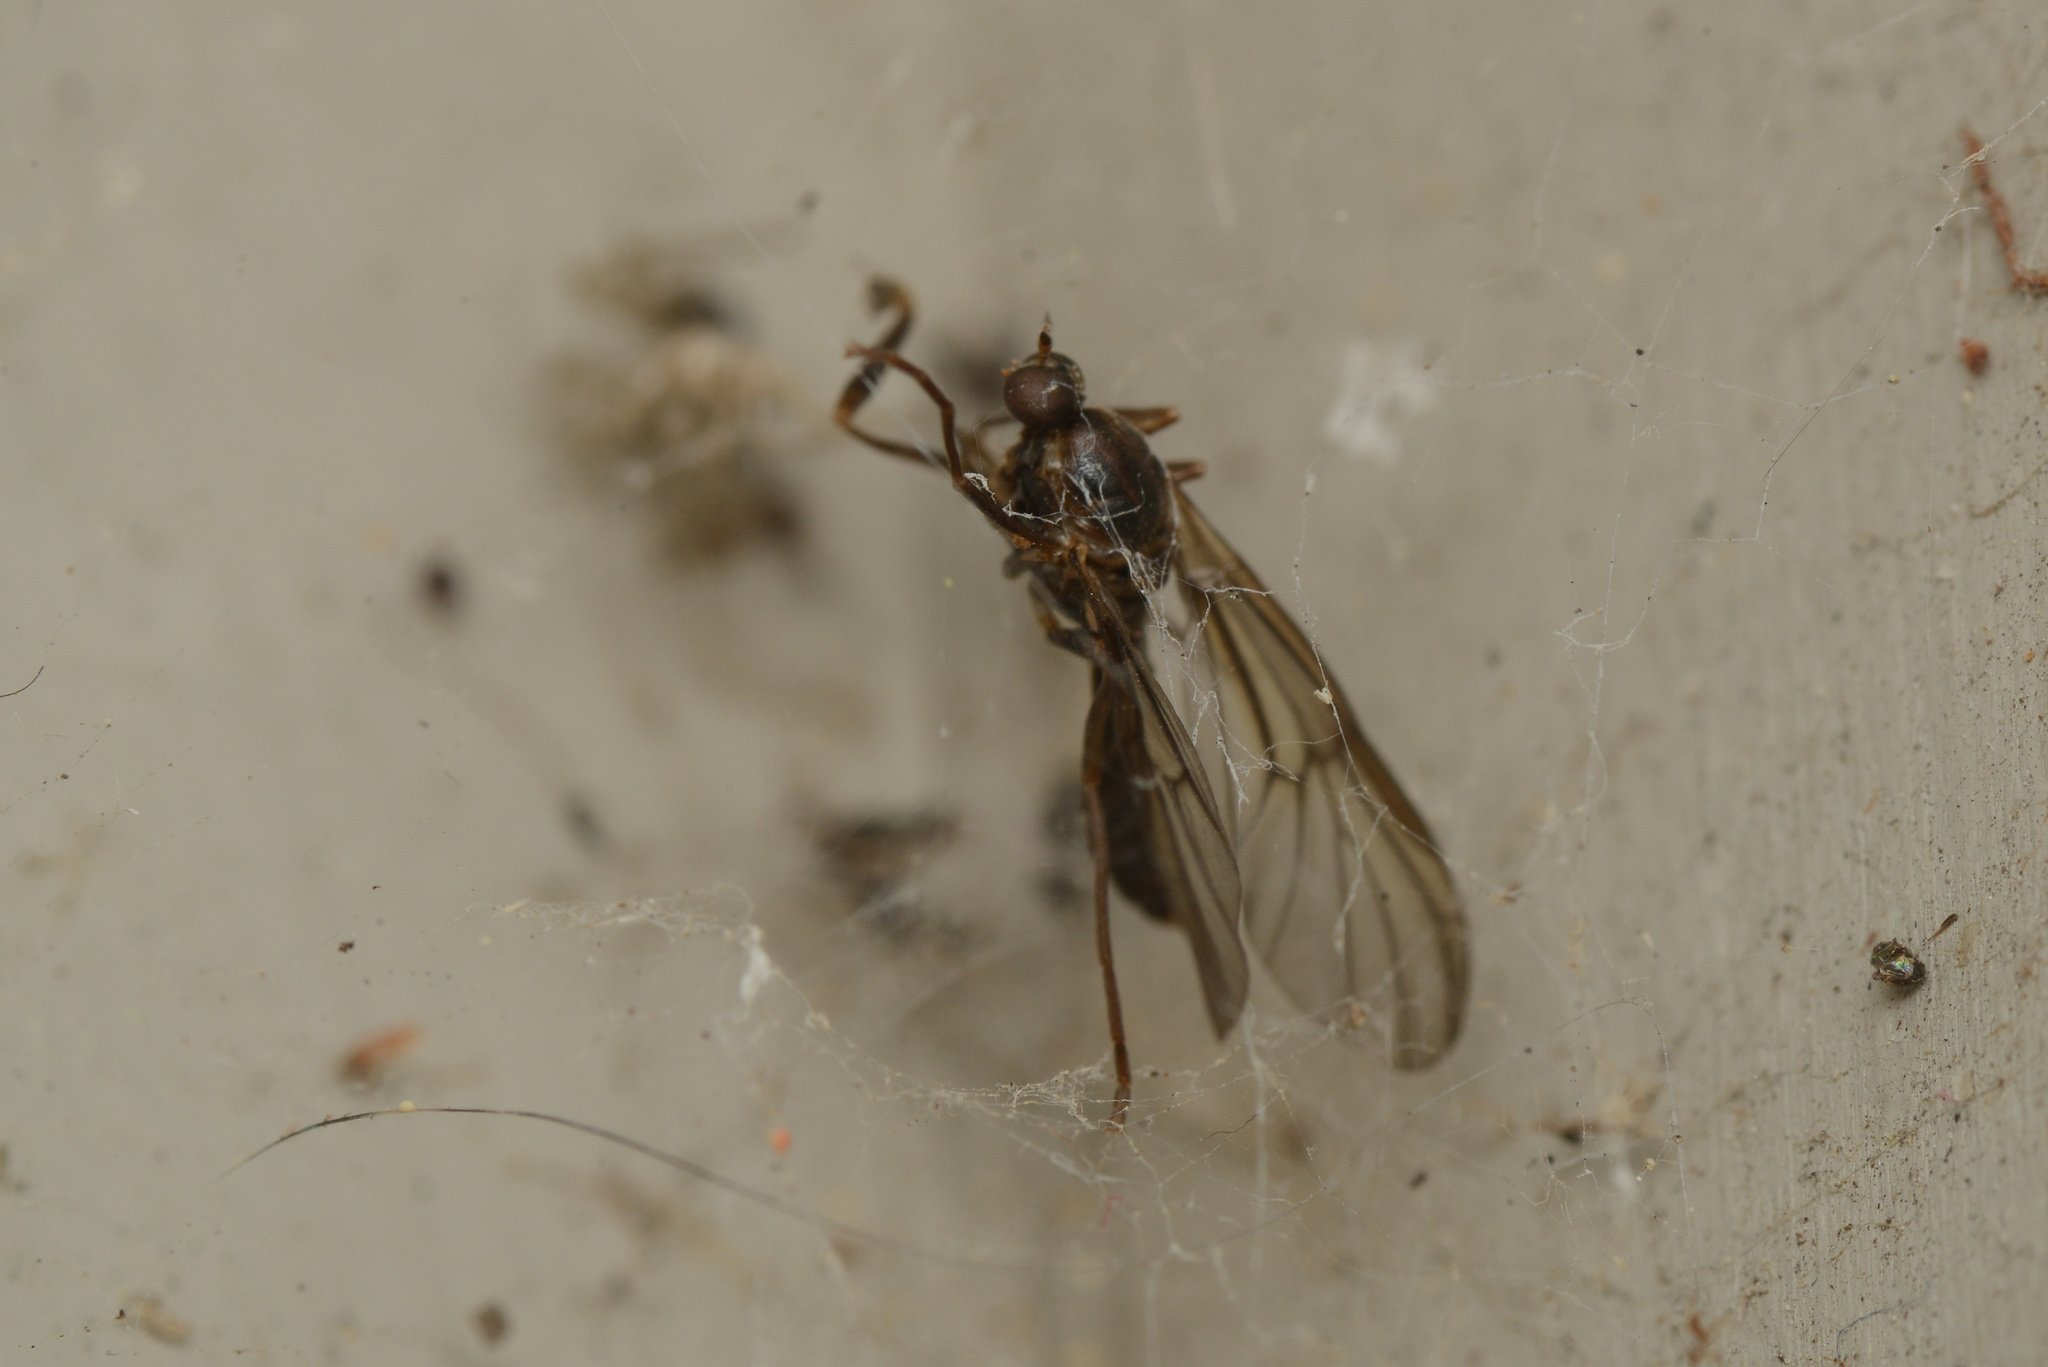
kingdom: Animalia
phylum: Arthropoda
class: Insecta
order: Diptera
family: Stratiomyidae
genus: Boreoides
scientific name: Boreoides tasmaniensis
